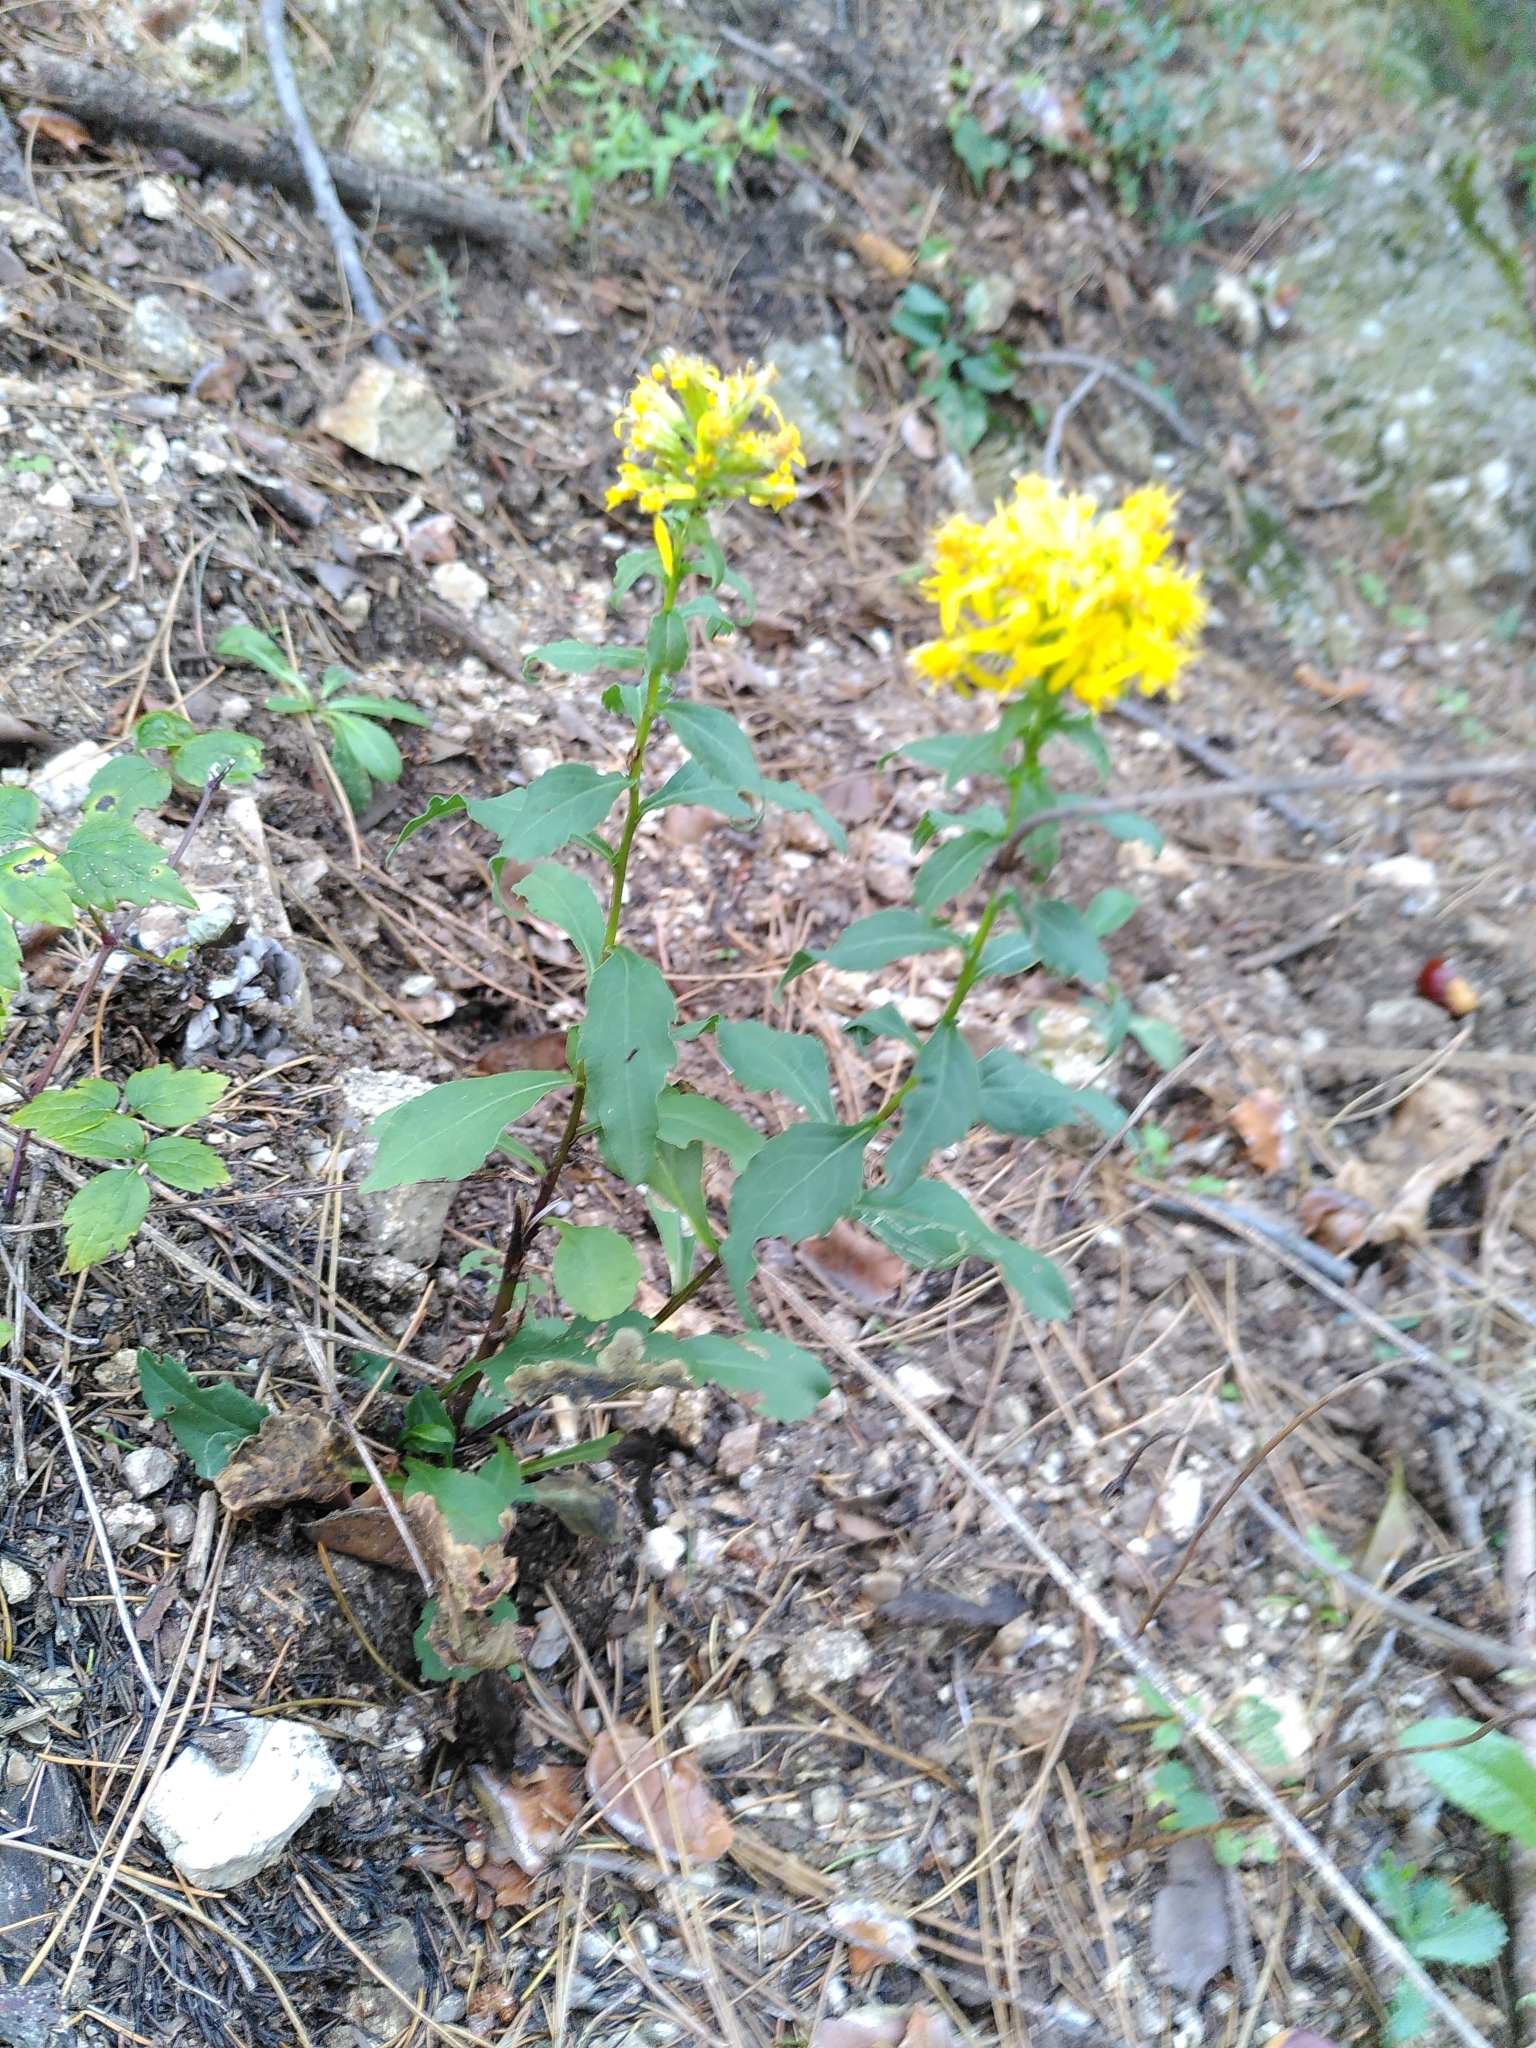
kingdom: Plantae
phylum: Tracheophyta
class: Magnoliopsida
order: Asterales
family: Asteraceae
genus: Solidago
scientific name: Solidago virgaurea
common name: Goldenrod
